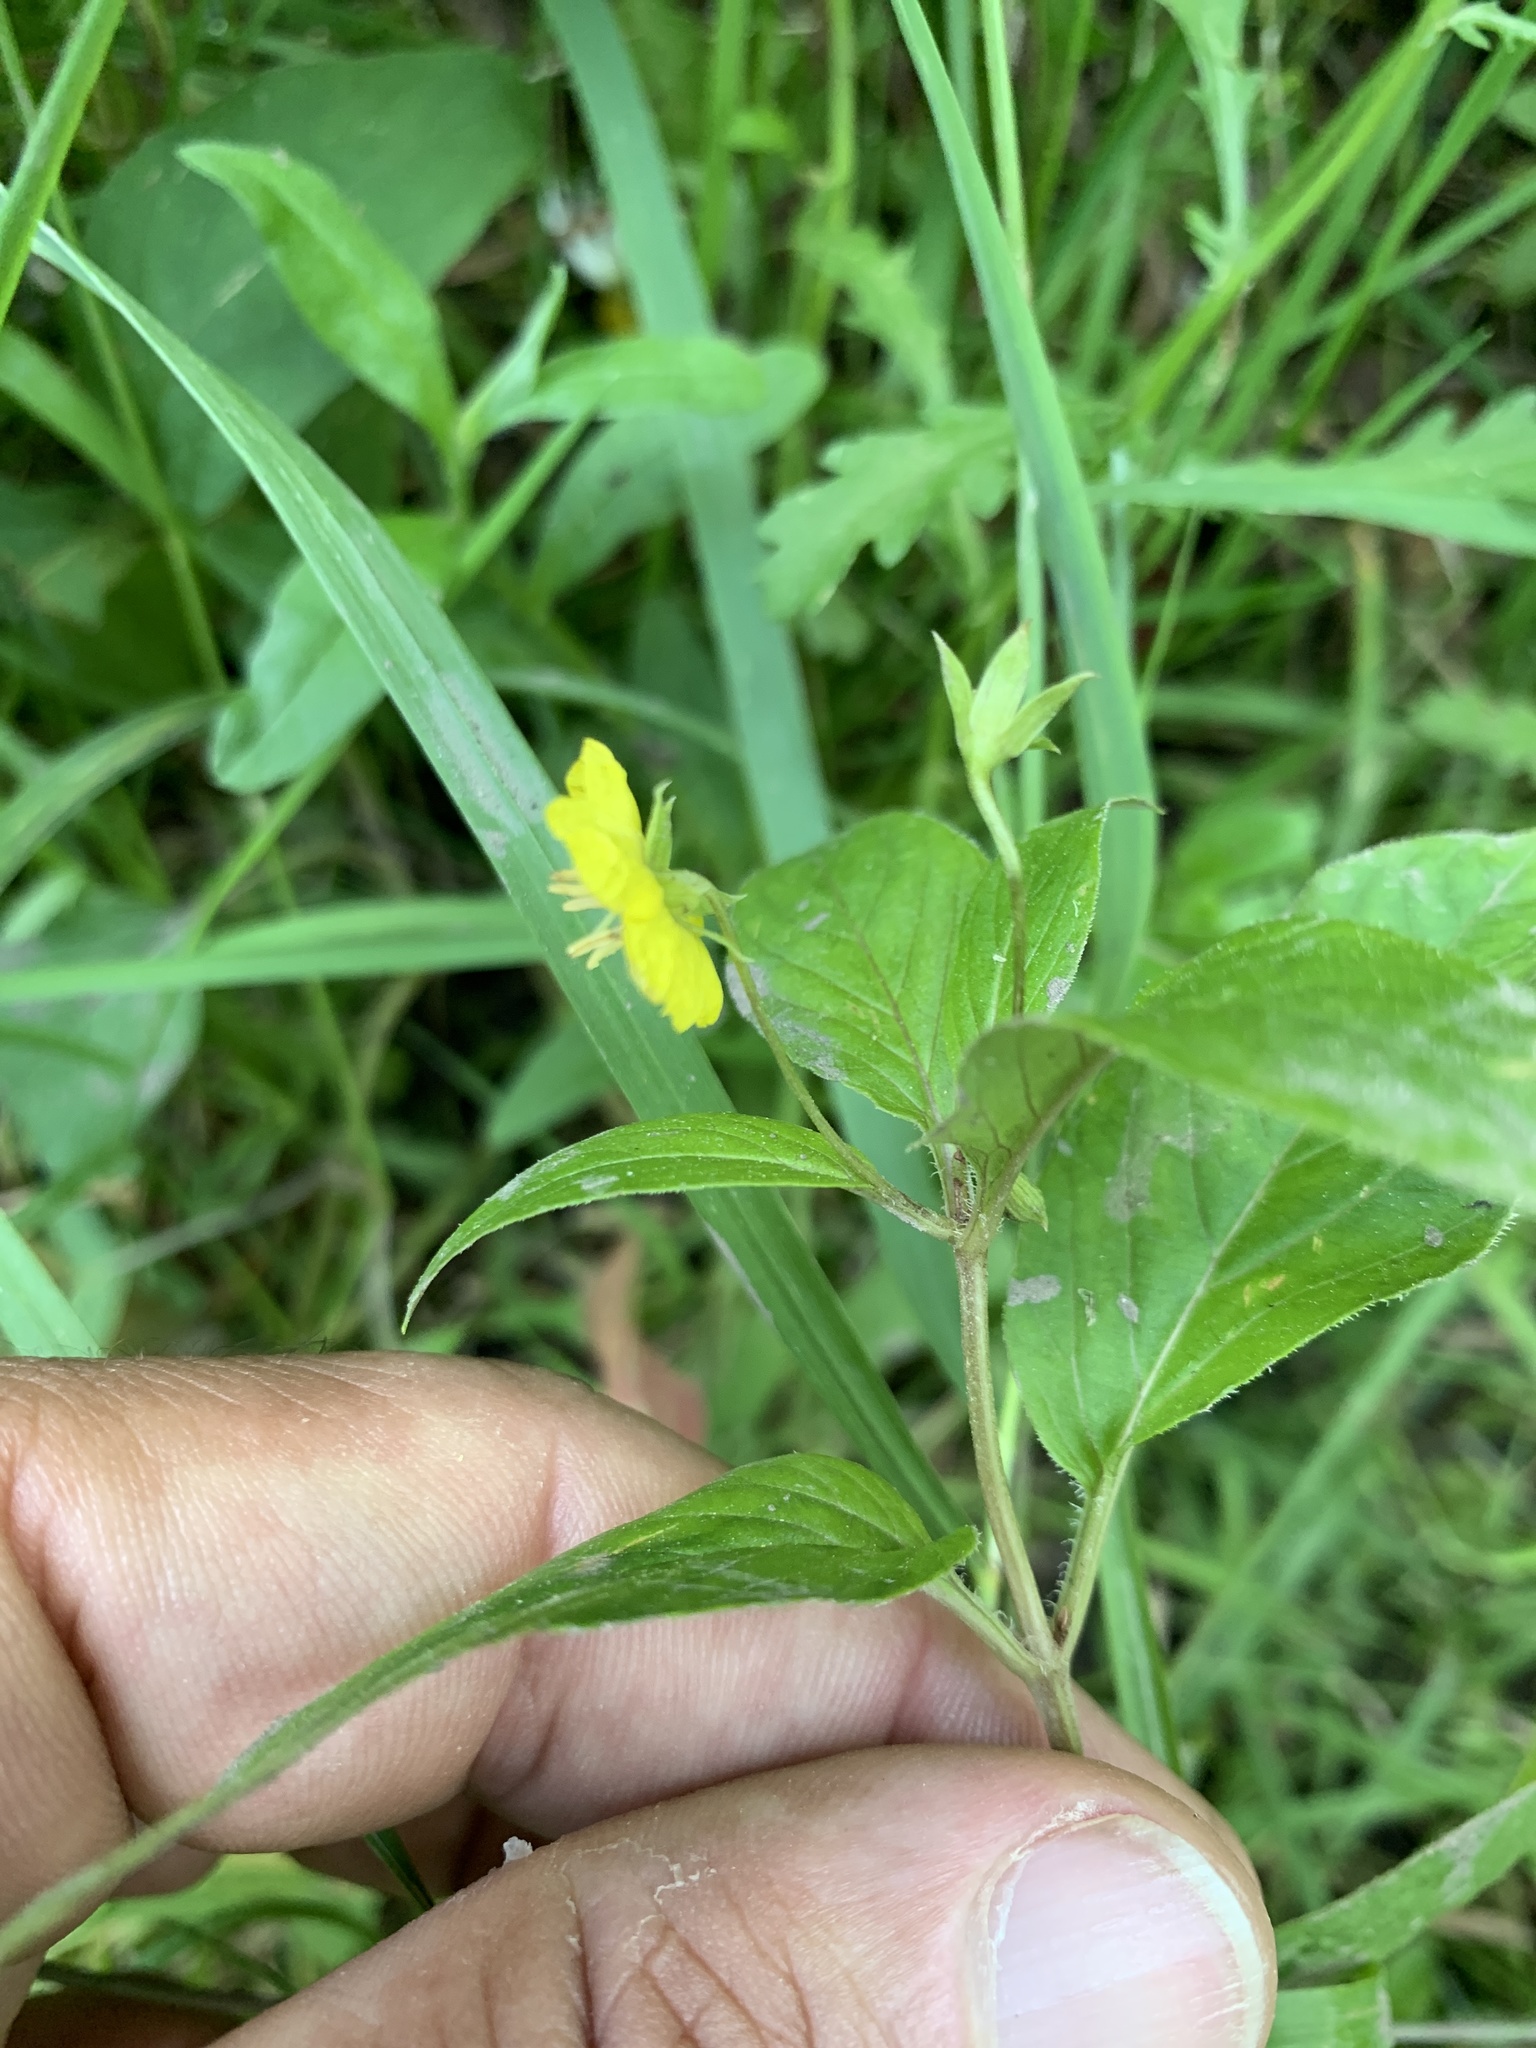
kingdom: Plantae
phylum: Tracheophyta
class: Magnoliopsida
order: Ericales
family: Primulaceae
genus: Lysimachia
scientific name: Lysimachia ciliata
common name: Fringed loosestrife
